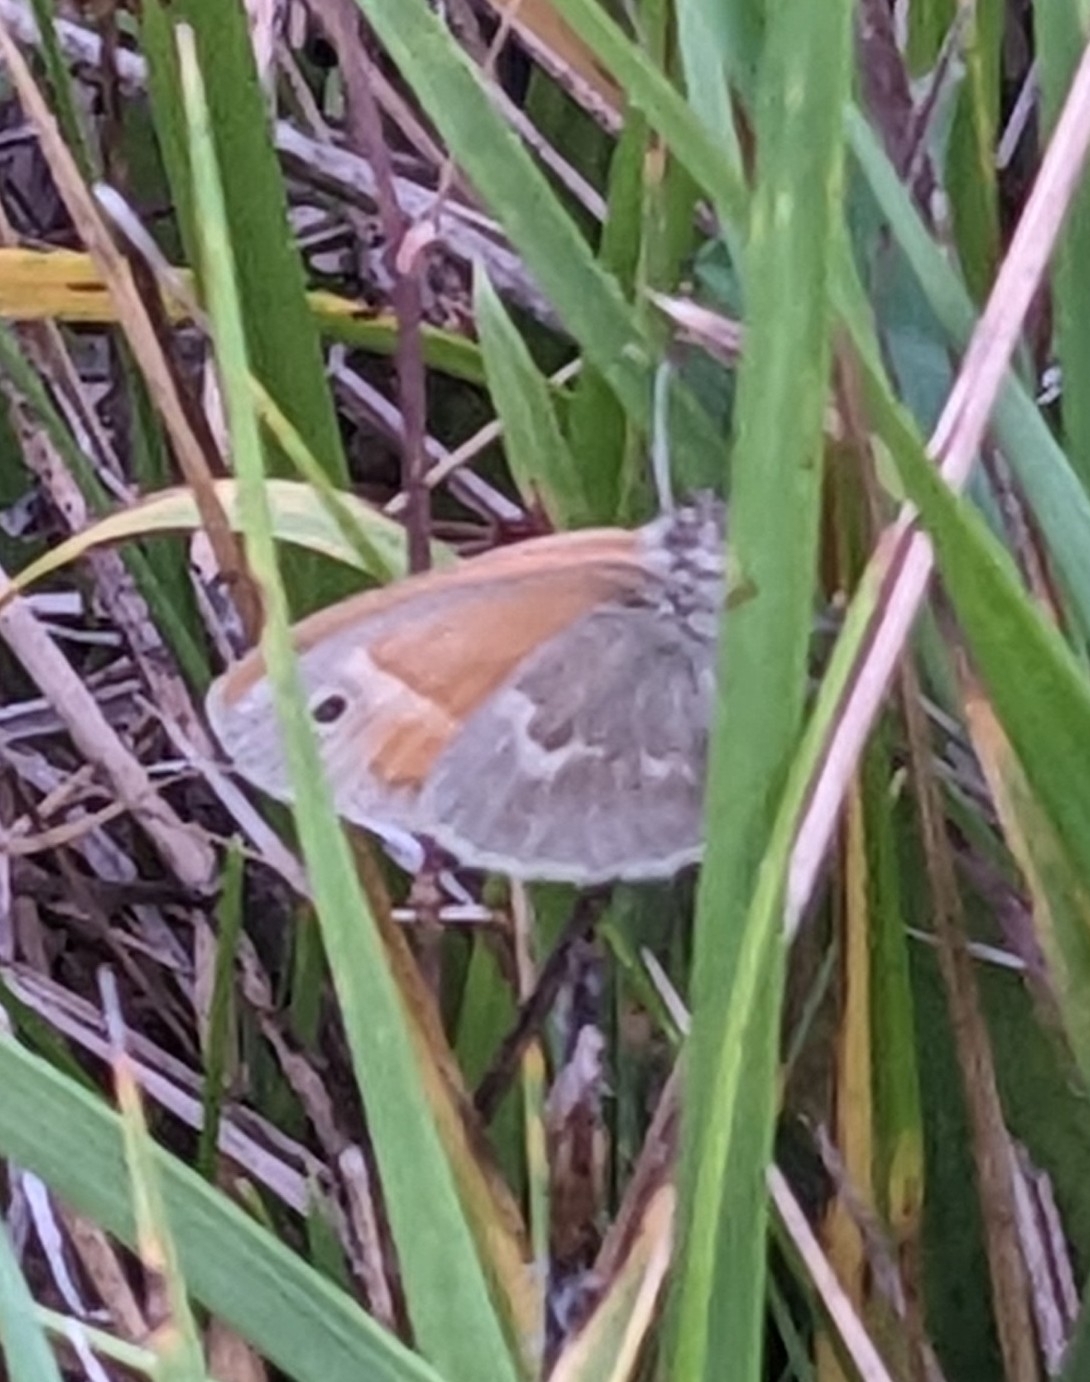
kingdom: Animalia
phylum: Arthropoda
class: Insecta
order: Lepidoptera
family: Nymphalidae
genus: Coenonympha
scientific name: Coenonympha california
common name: Common ringlet
